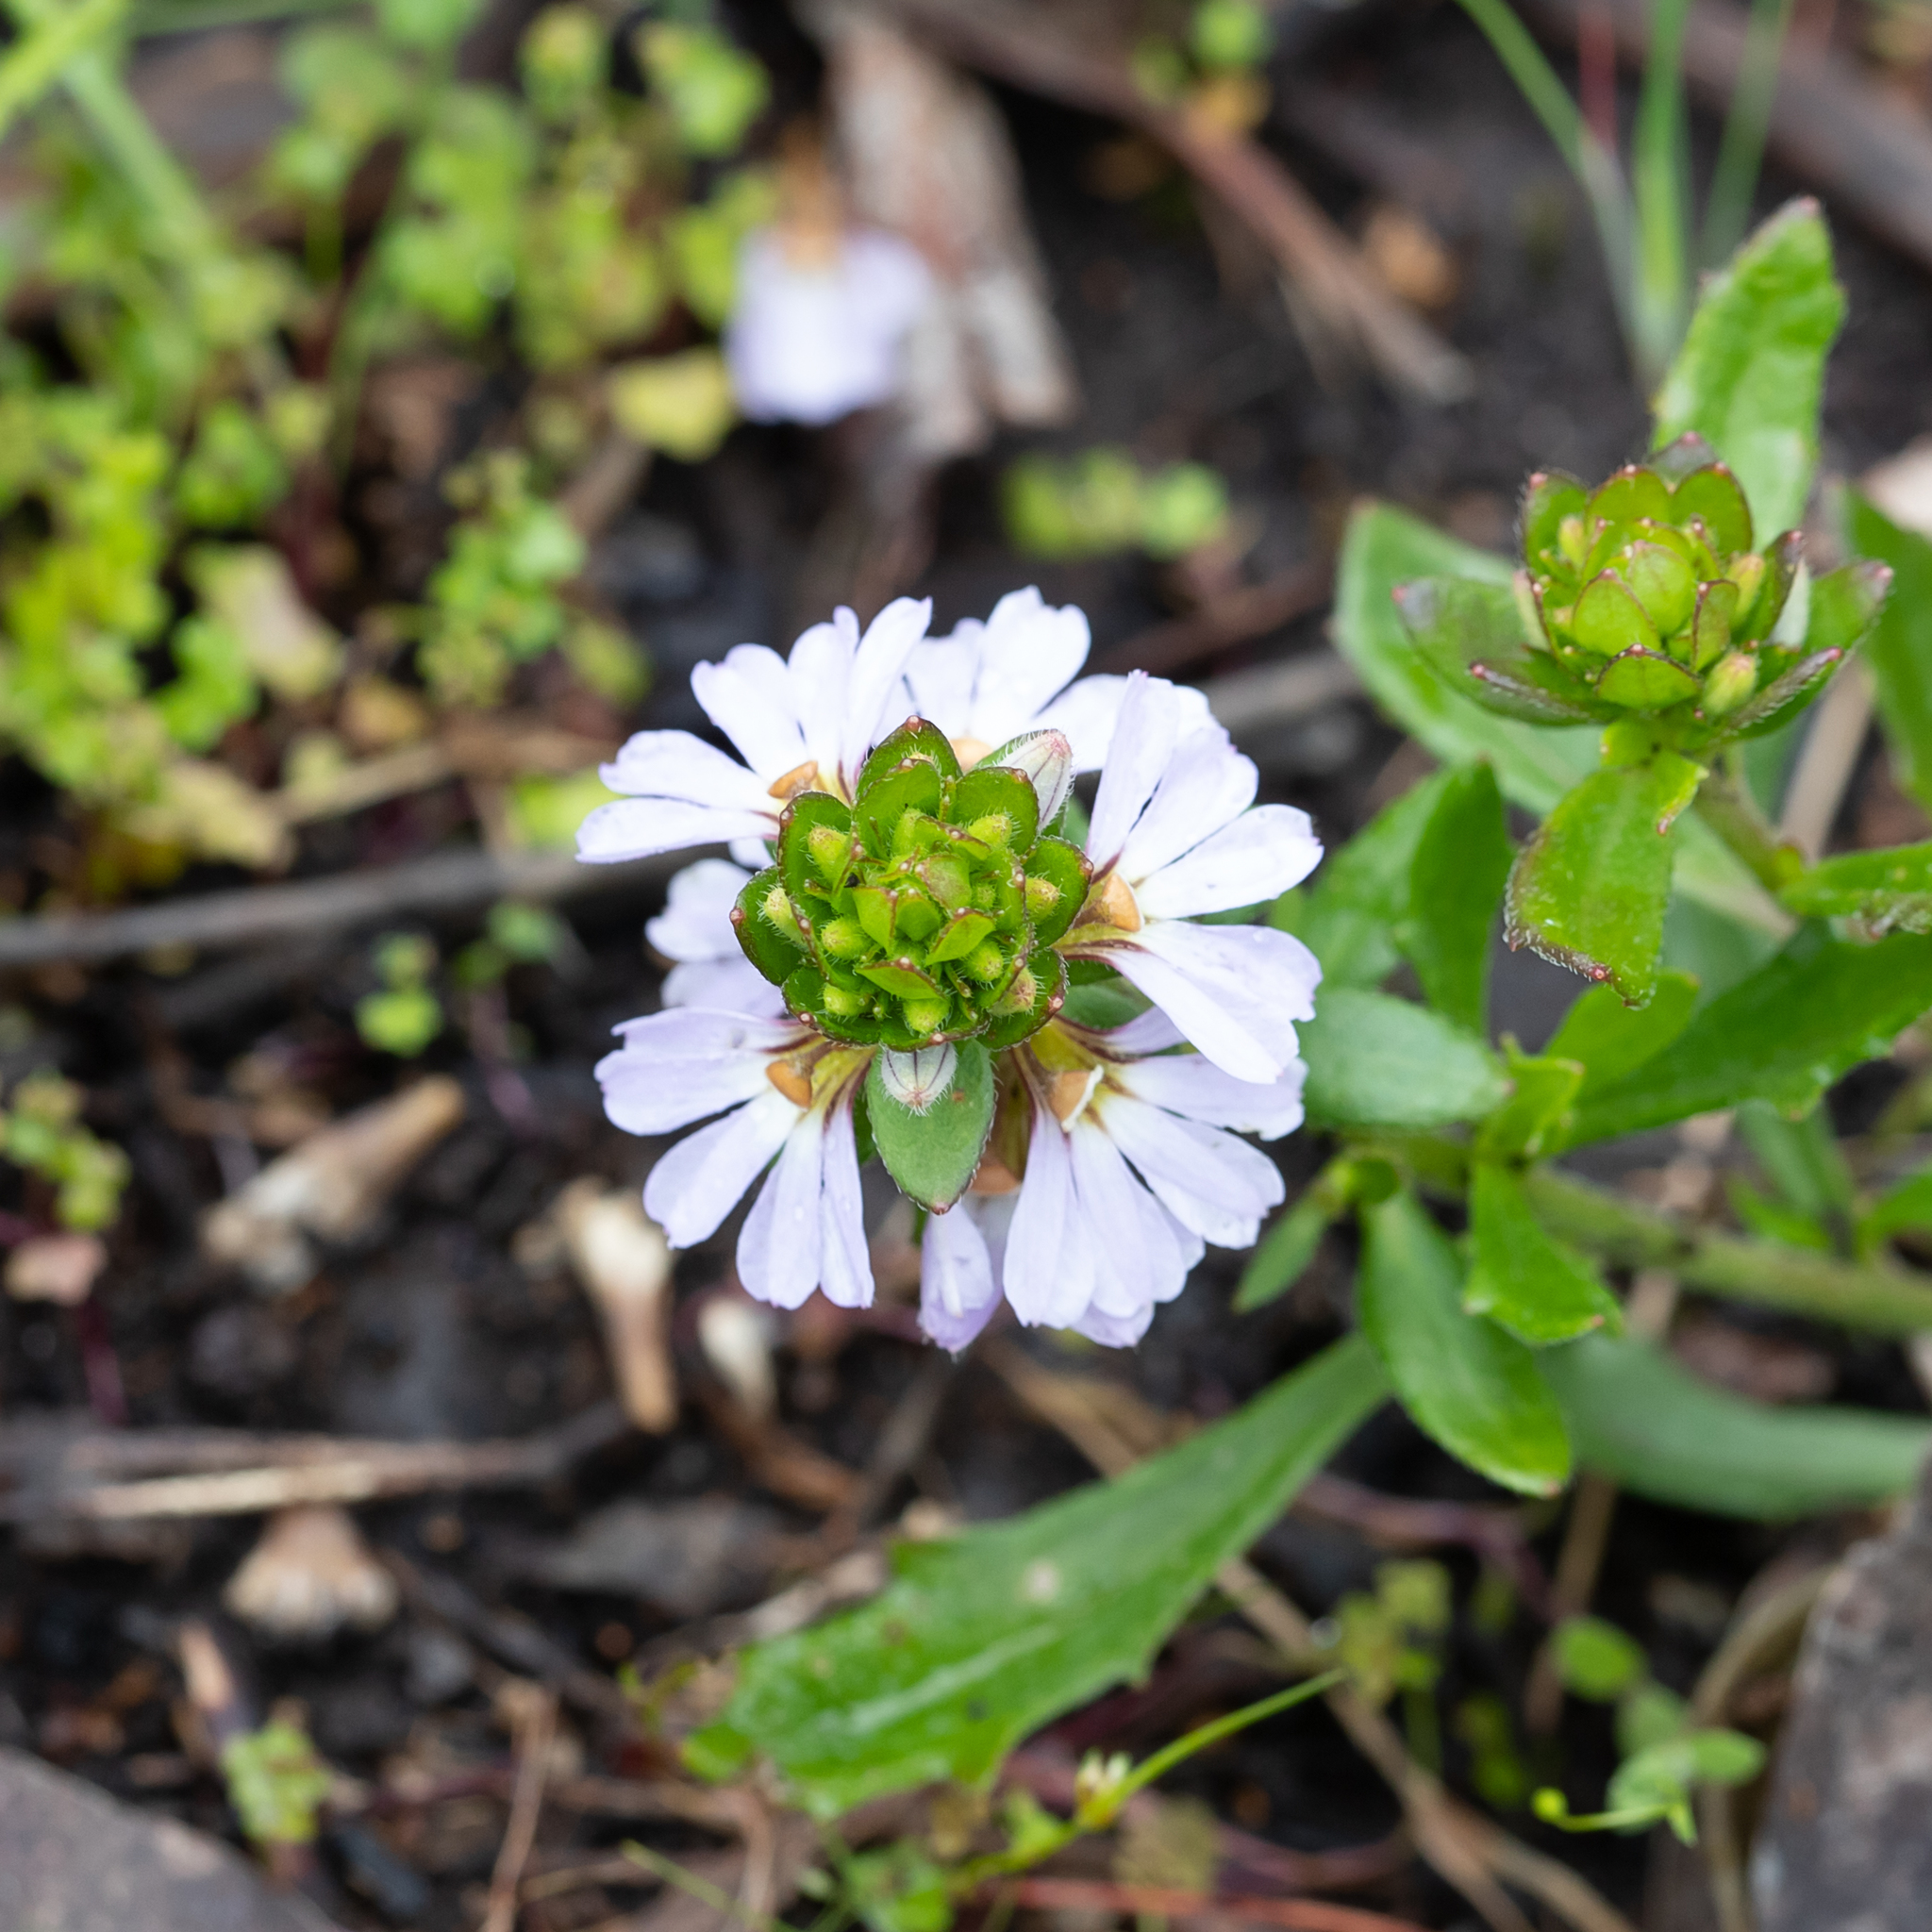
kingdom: Plantae
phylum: Tracheophyta
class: Magnoliopsida
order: Asterales
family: Goodeniaceae
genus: Scaevola
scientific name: Scaevola albida
